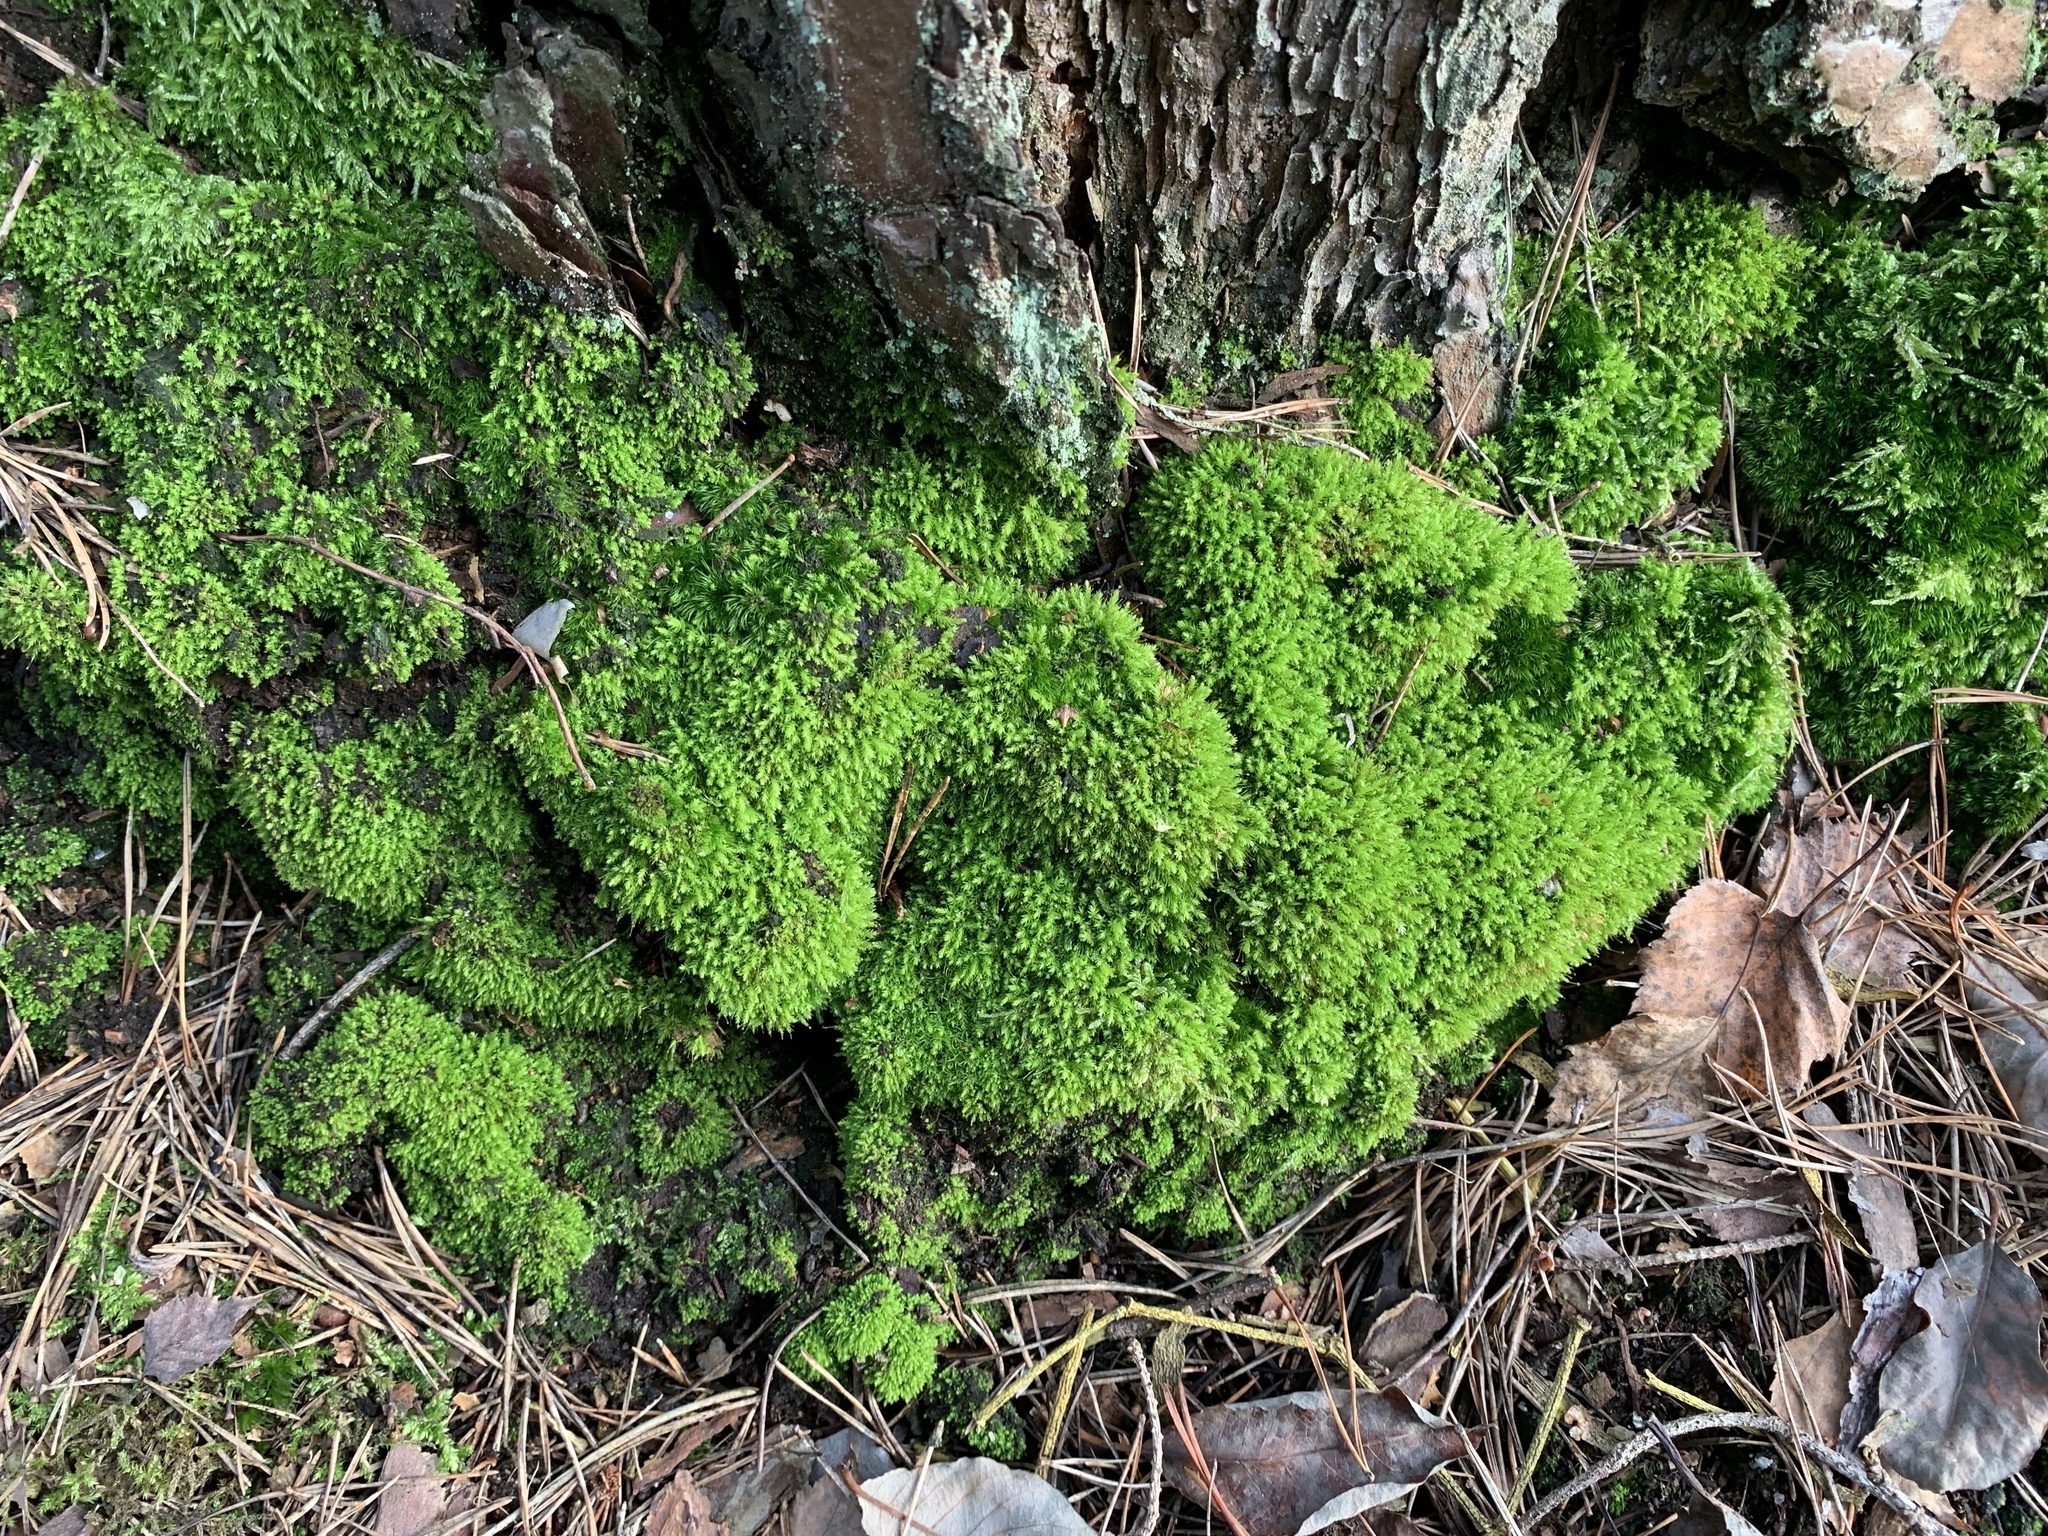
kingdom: Plantae
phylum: Bryophyta
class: Bryopsida
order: Aulacomniales
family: Aulacomniaceae
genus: Aulacomnium
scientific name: Aulacomnium androgynum
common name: Little groove moss
